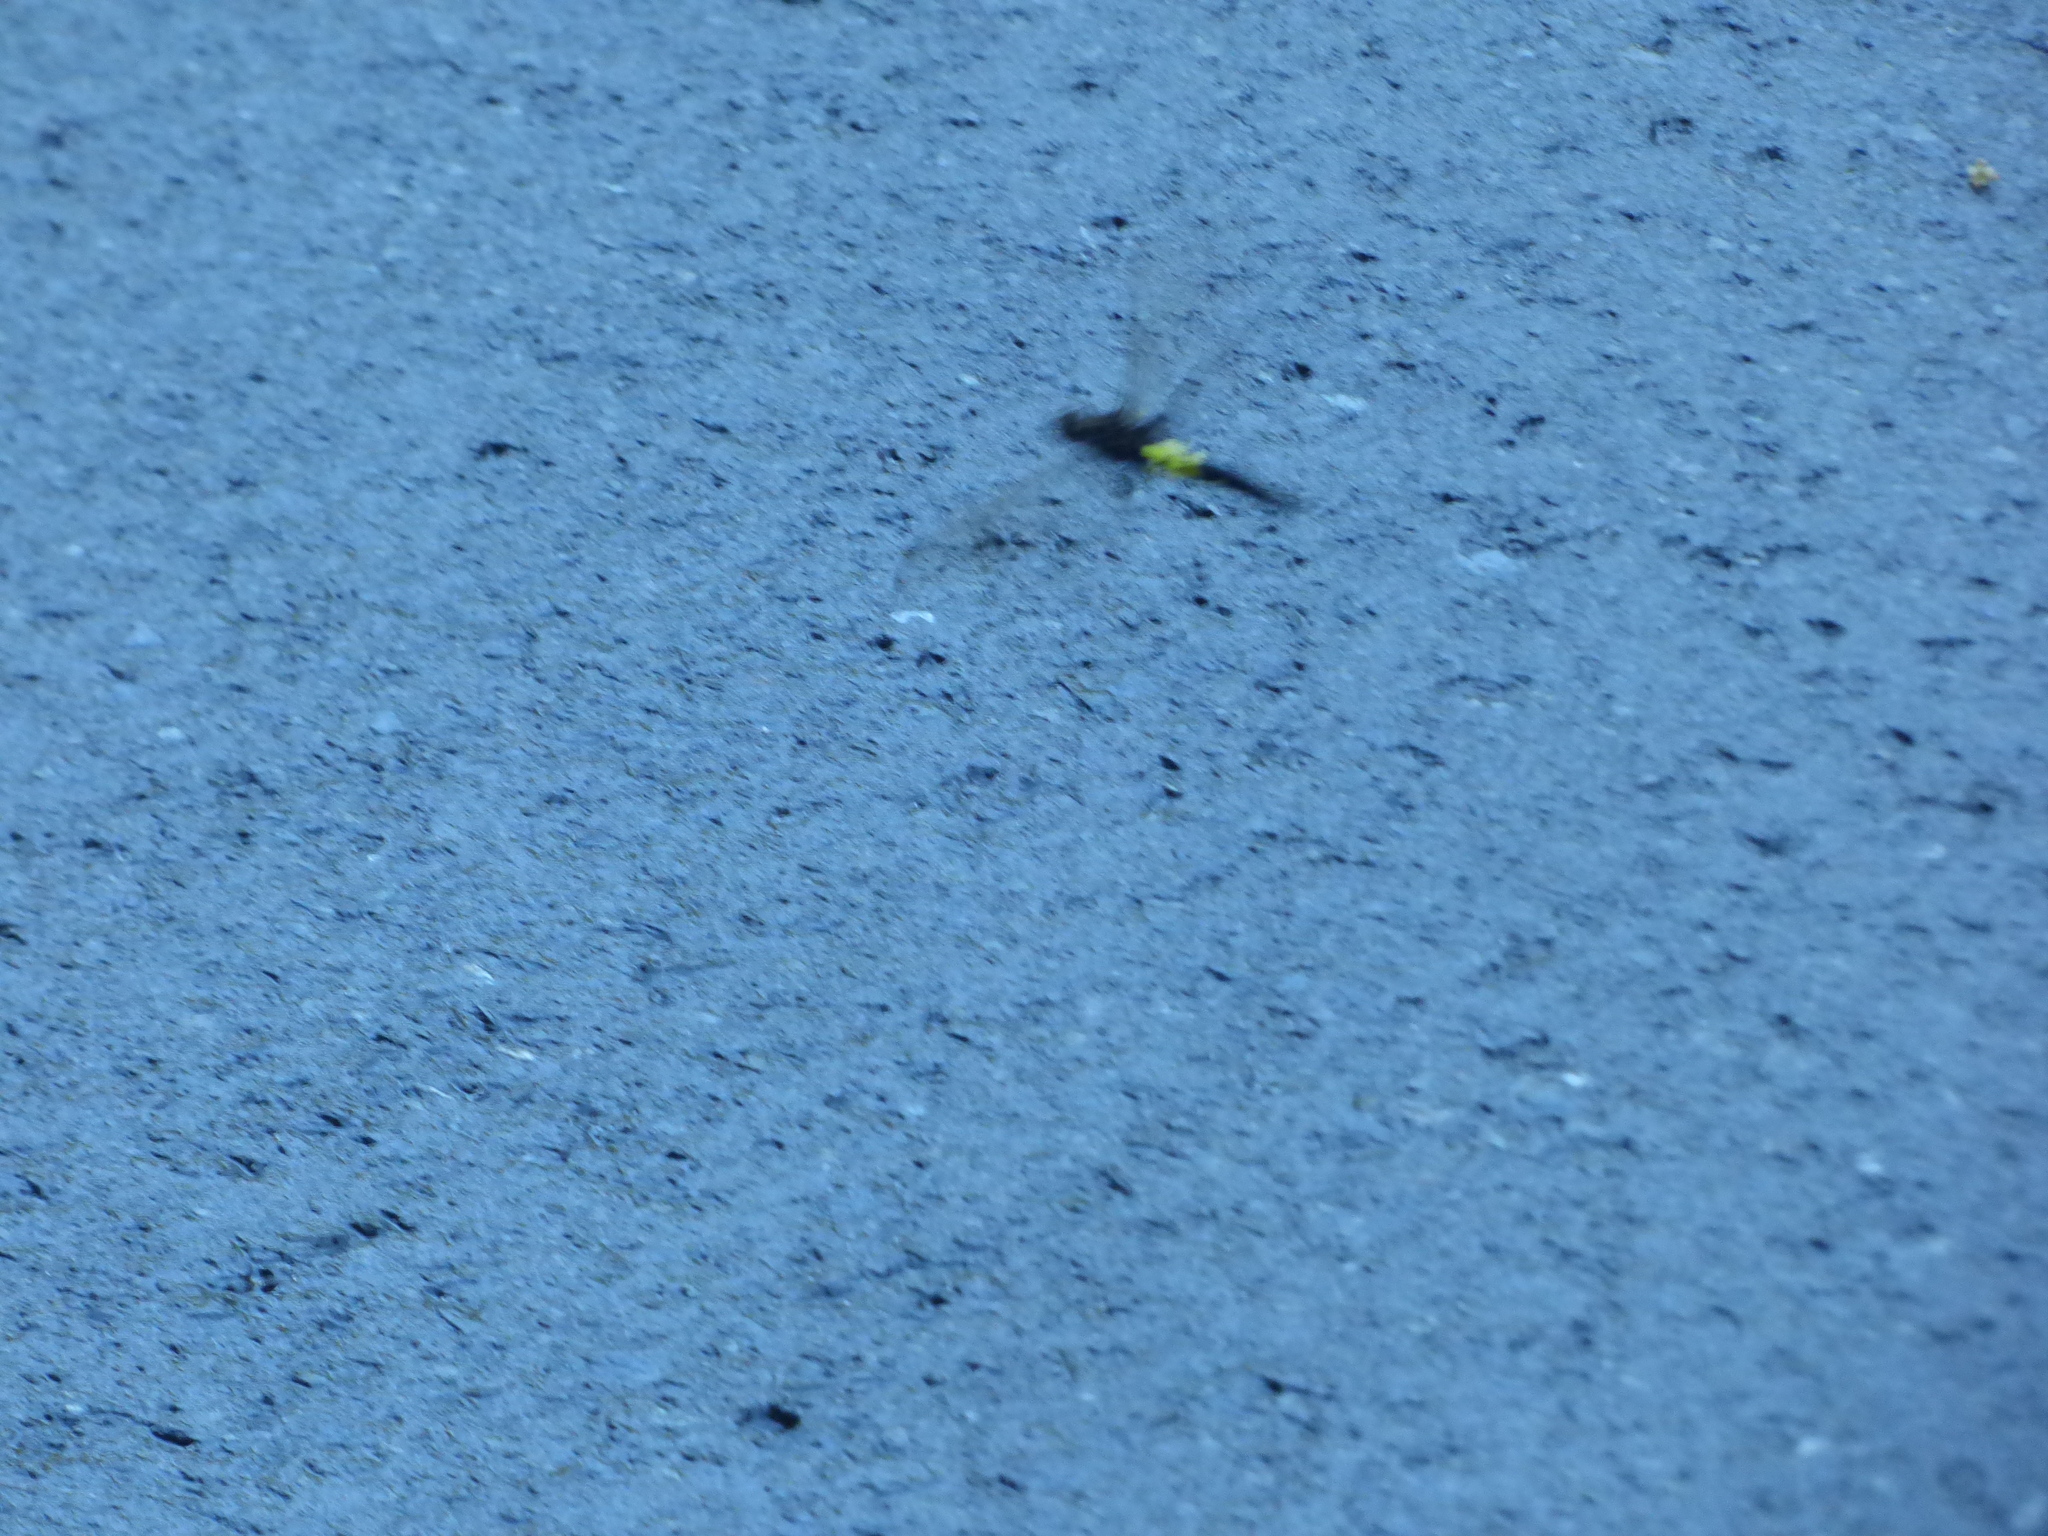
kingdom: Animalia
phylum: Arthropoda
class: Insecta
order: Odonata
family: Libellulidae
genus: Pseudothemis
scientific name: Pseudothemis zonata
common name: Pied skimmer
